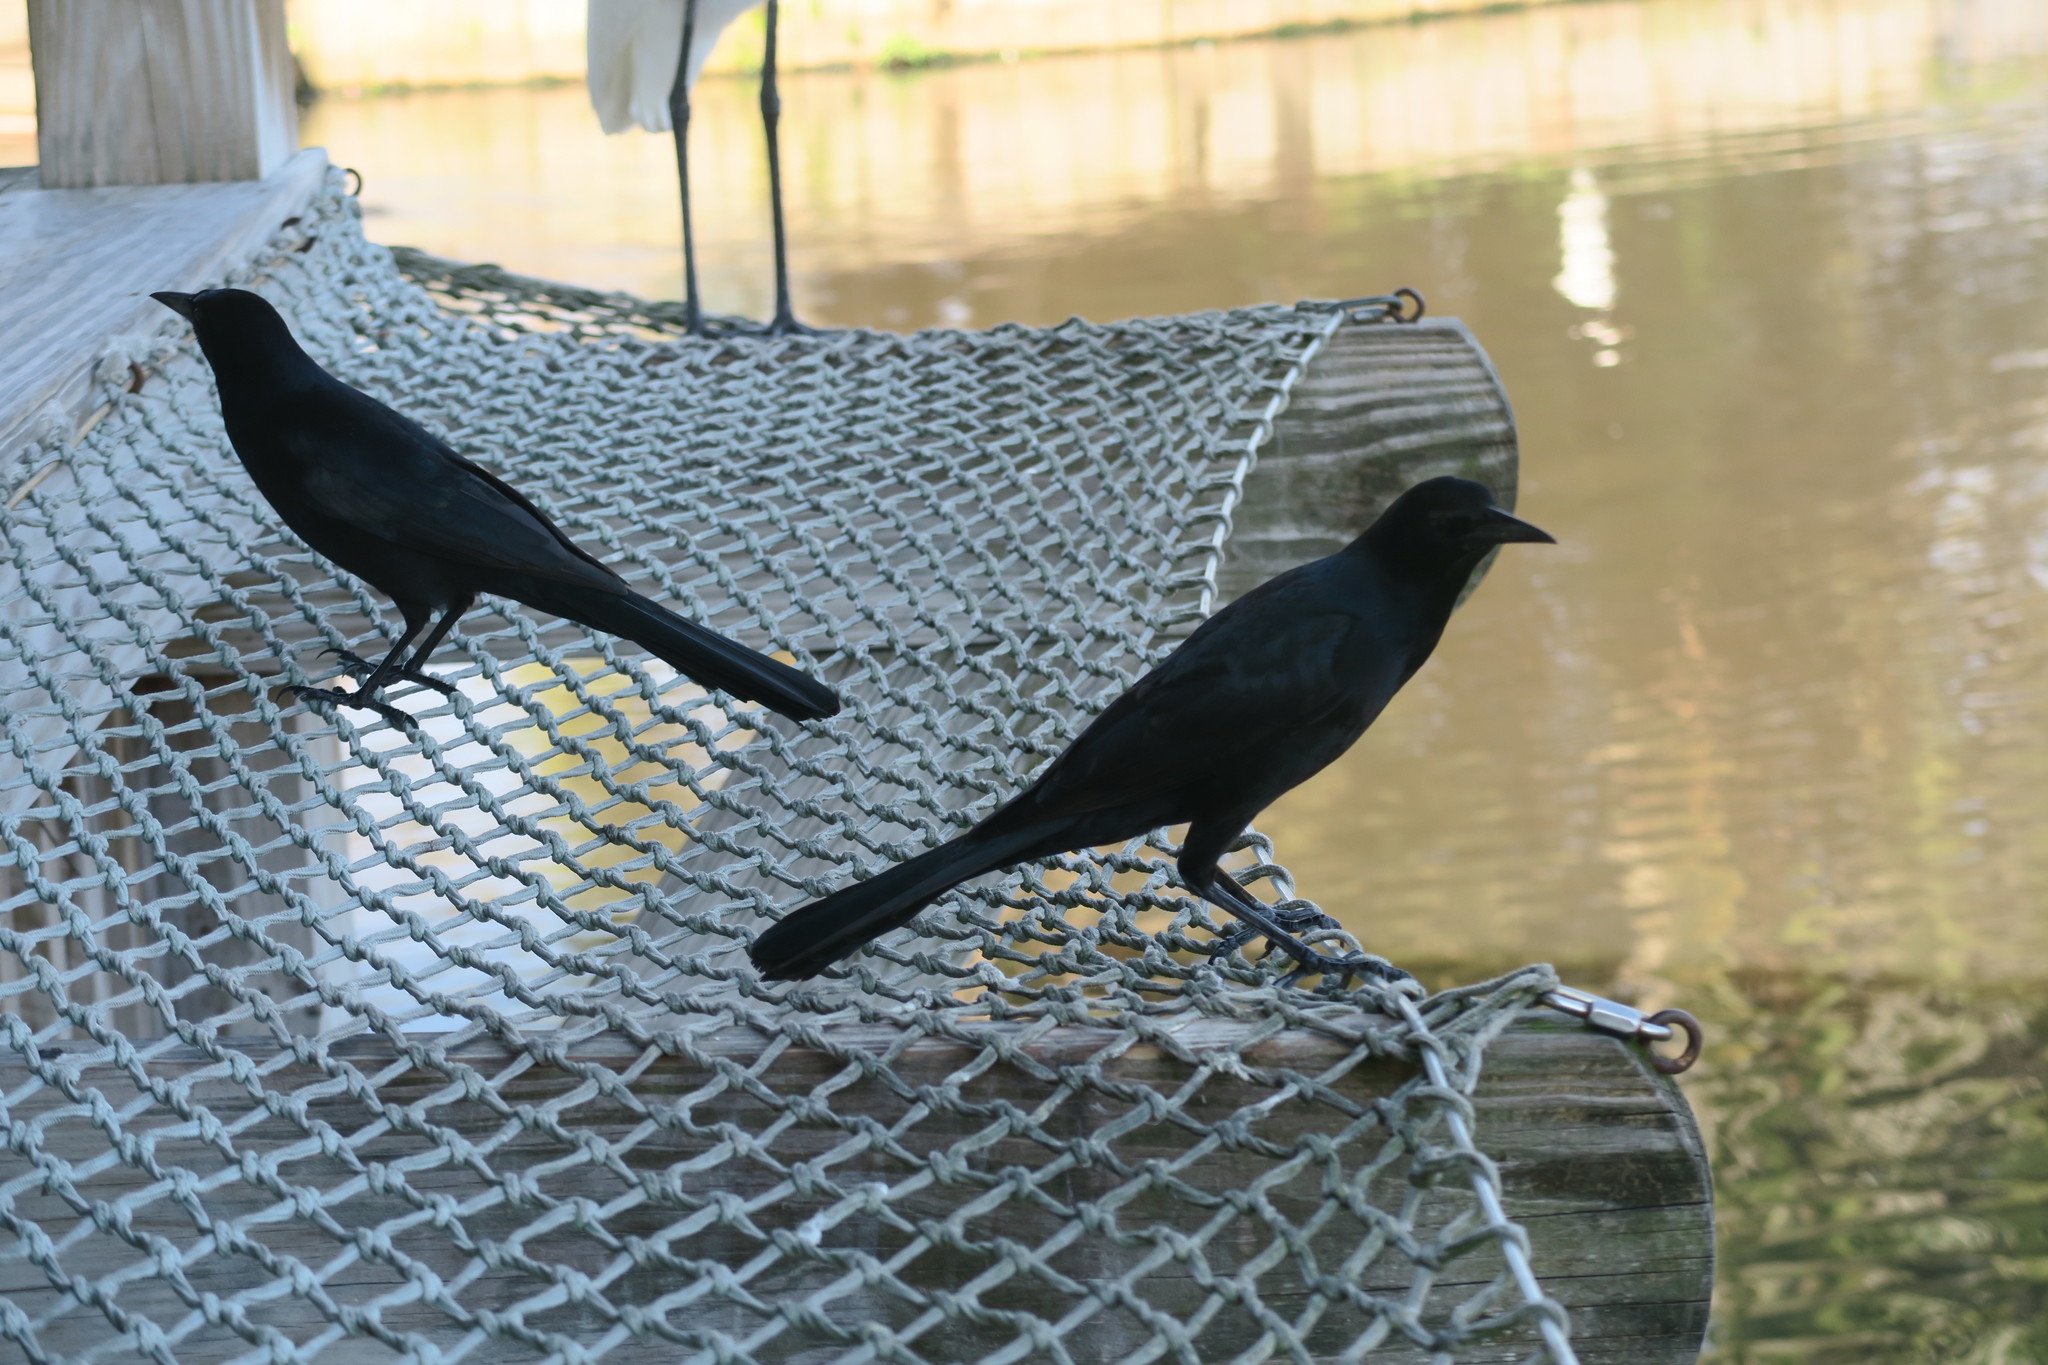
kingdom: Animalia
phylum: Chordata
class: Aves
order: Passeriformes
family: Icteridae
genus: Quiscalus
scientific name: Quiscalus major
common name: Boat-tailed grackle
